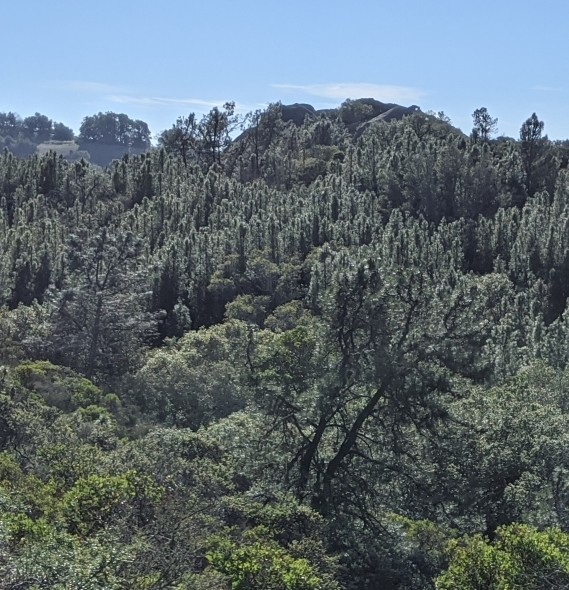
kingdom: Plantae
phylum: Tracheophyta
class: Pinopsida
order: Pinales
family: Pinaceae
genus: Pinus
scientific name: Pinus attenuata
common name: Knobcone pine
